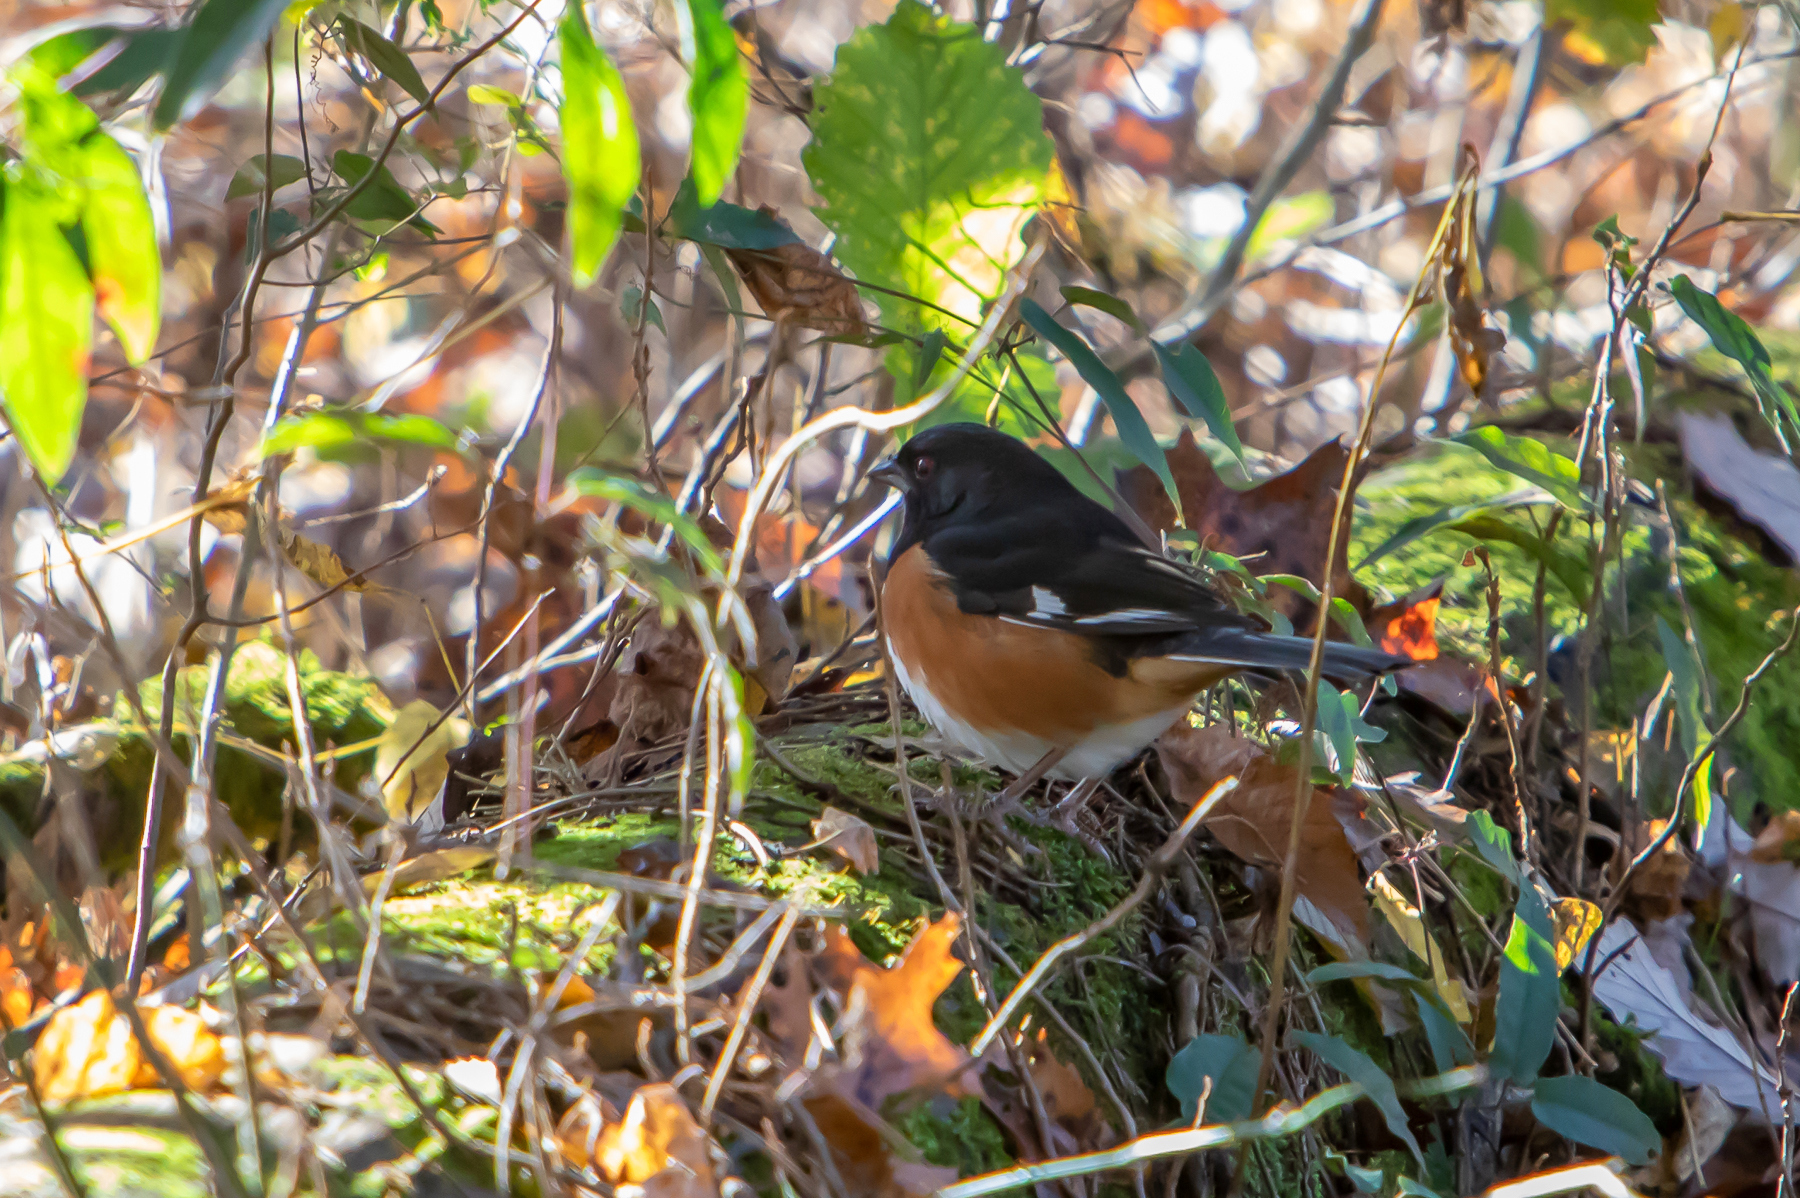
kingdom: Animalia
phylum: Chordata
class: Aves
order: Passeriformes
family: Passerellidae
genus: Pipilo
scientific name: Pipilo erythrophthalmus
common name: Eastern towhee
